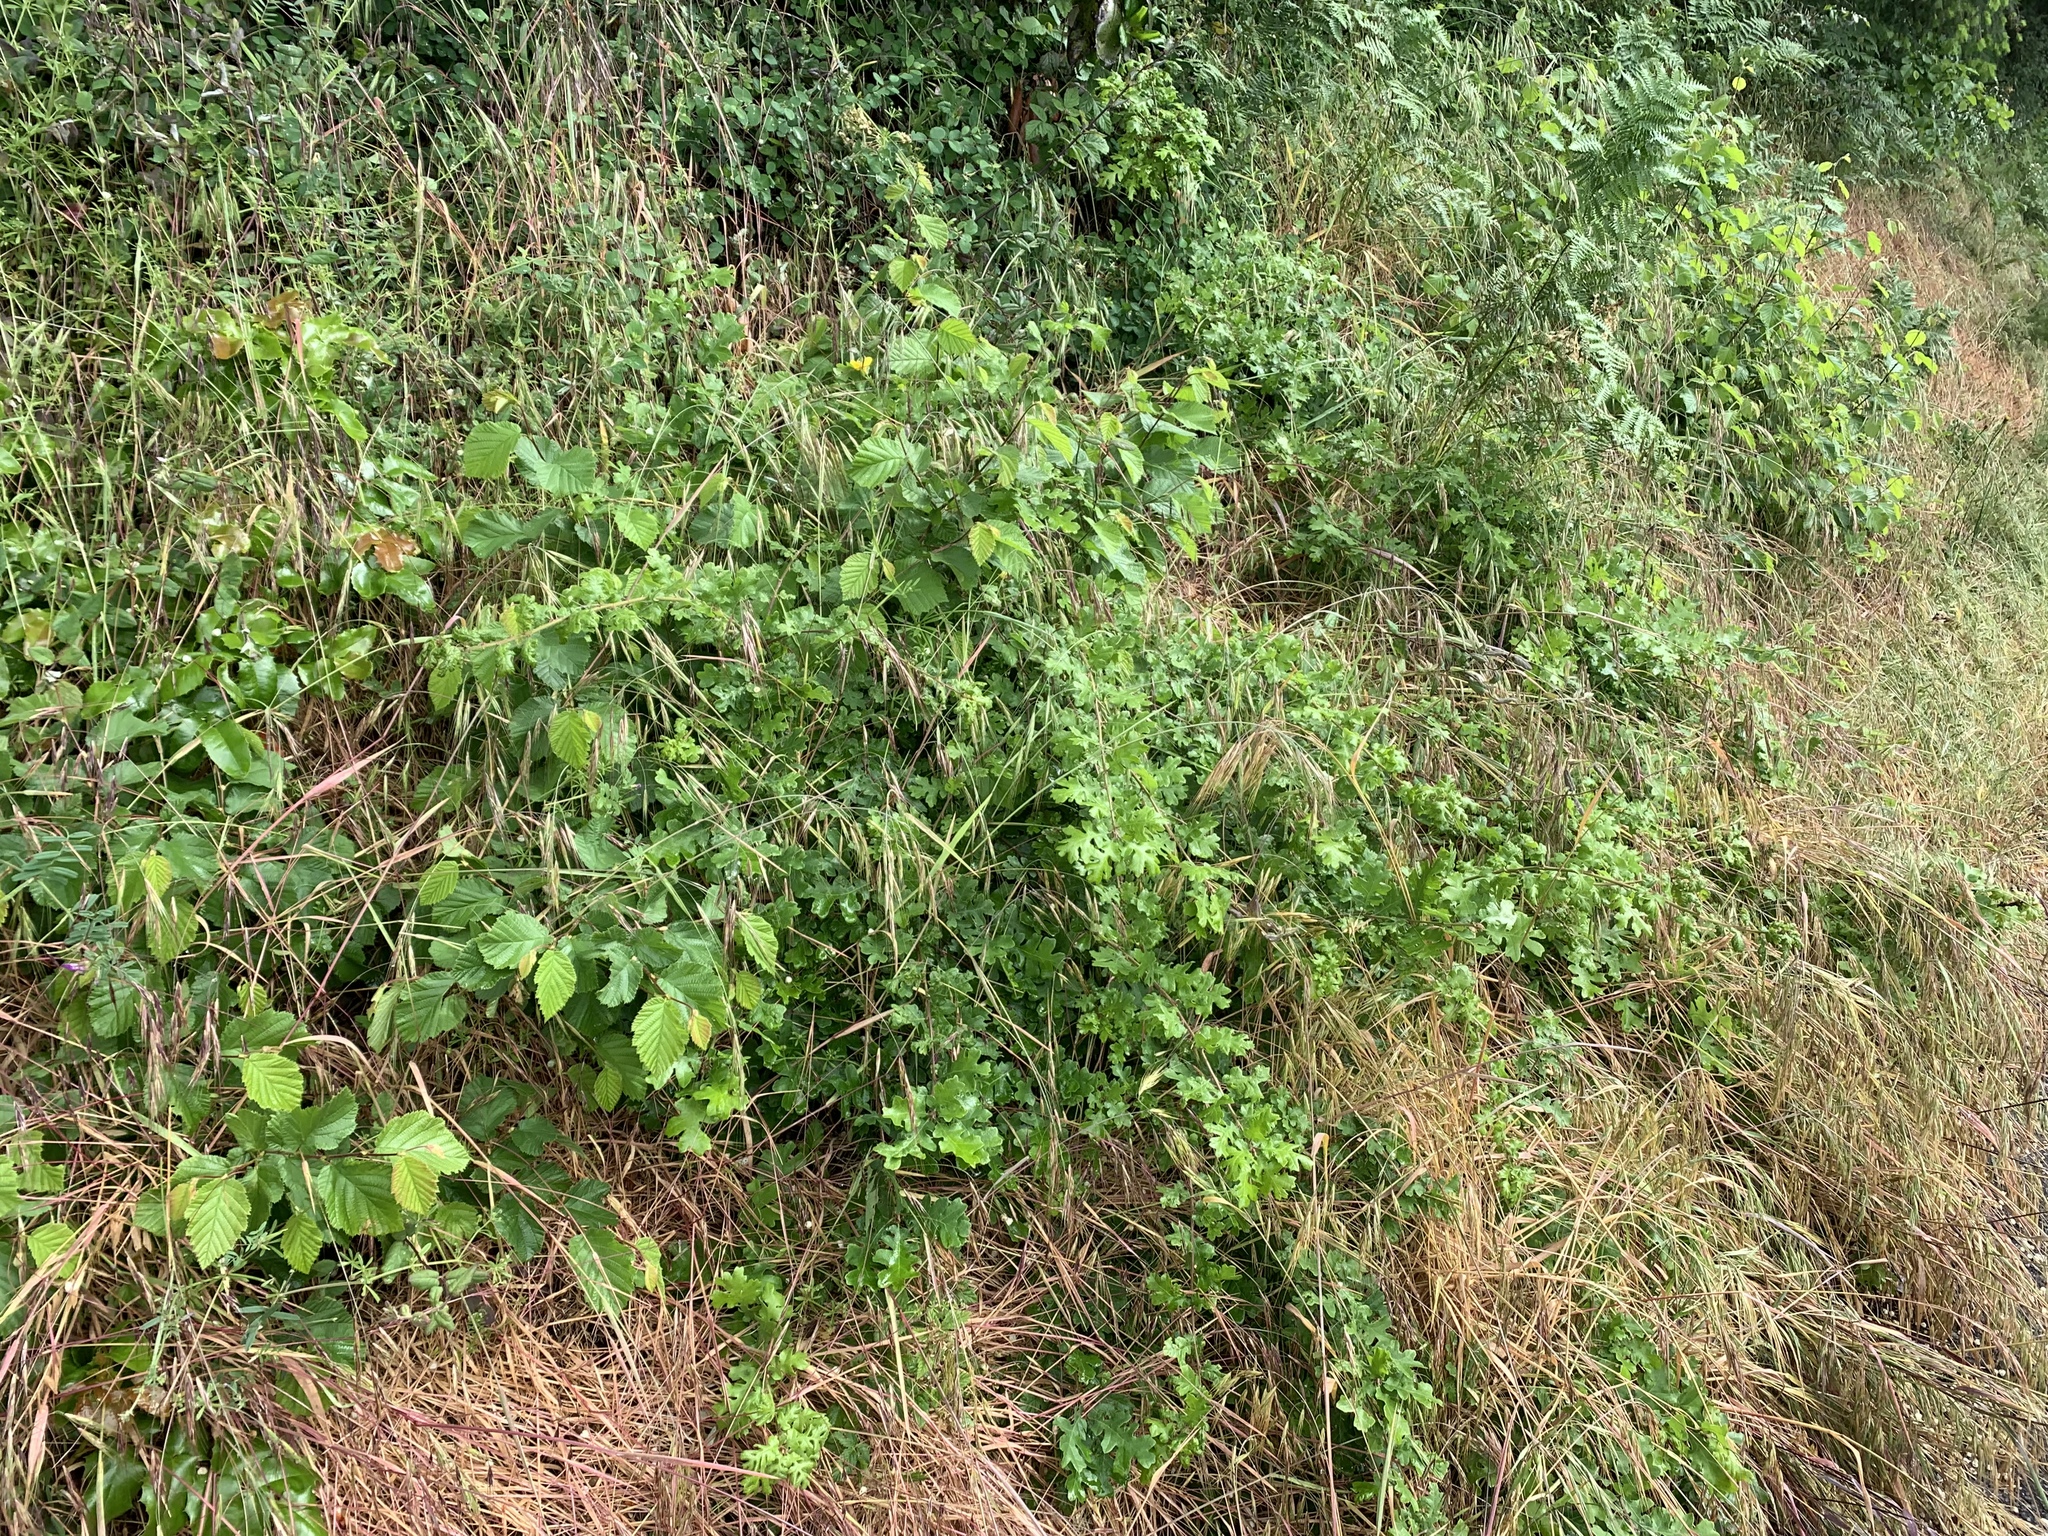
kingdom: Plantae
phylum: Tracheophyta
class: Magnoliopsida
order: Fagales
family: Fagaceae
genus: Quercus
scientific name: Quercus garryana
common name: Garry oak
